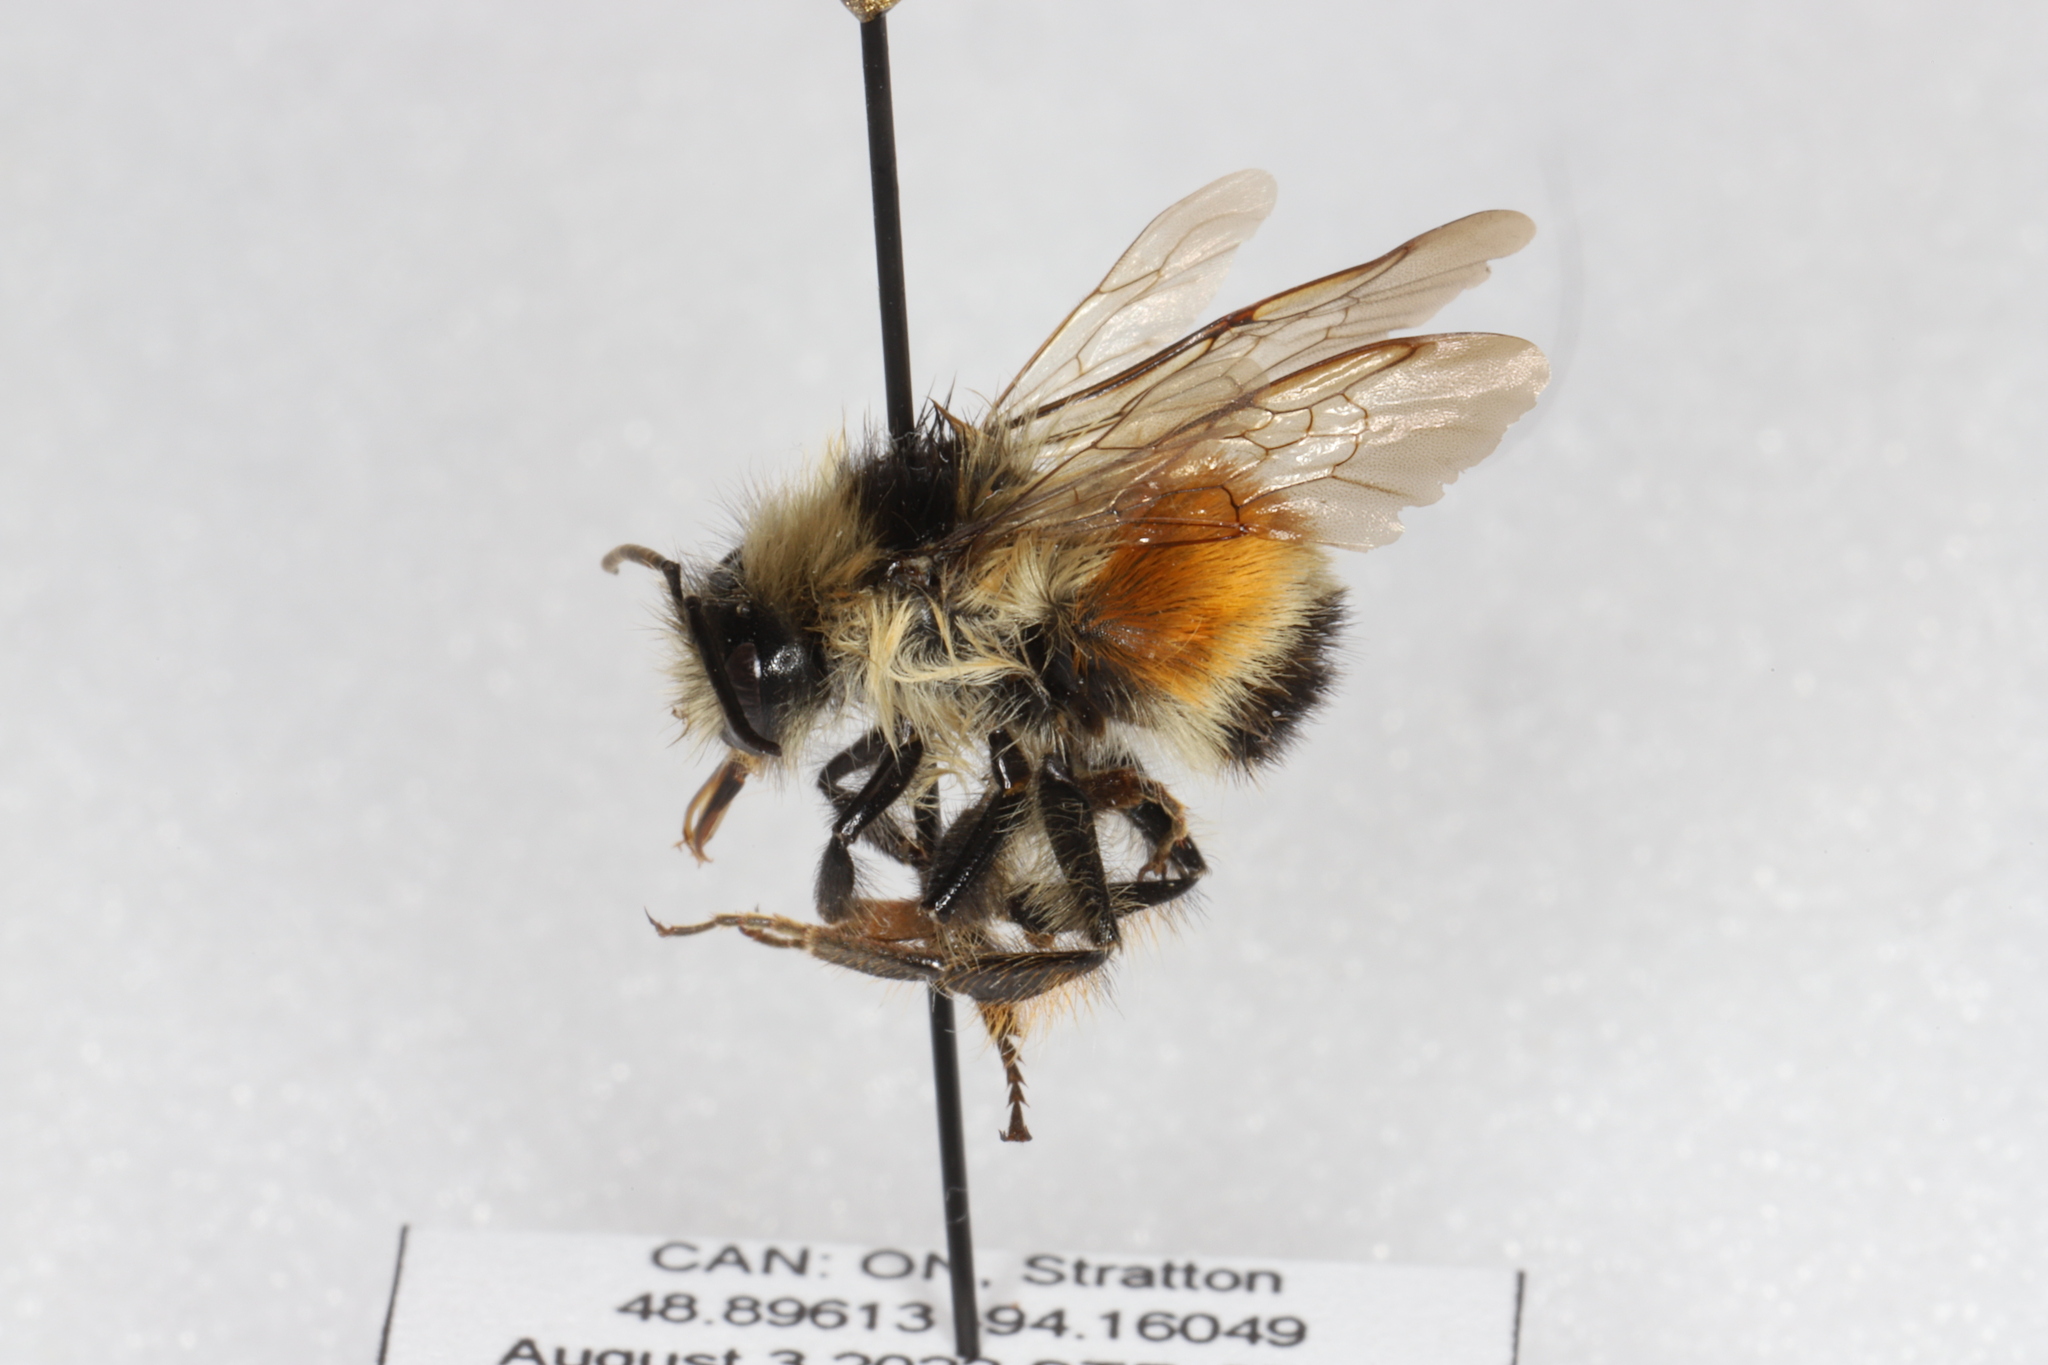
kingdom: Animalia
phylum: Arthropoda
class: Insecta
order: Hymenoptera
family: Apidae
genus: Bombus
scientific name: Bombus ternarius
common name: Tri-colored bumble bee
